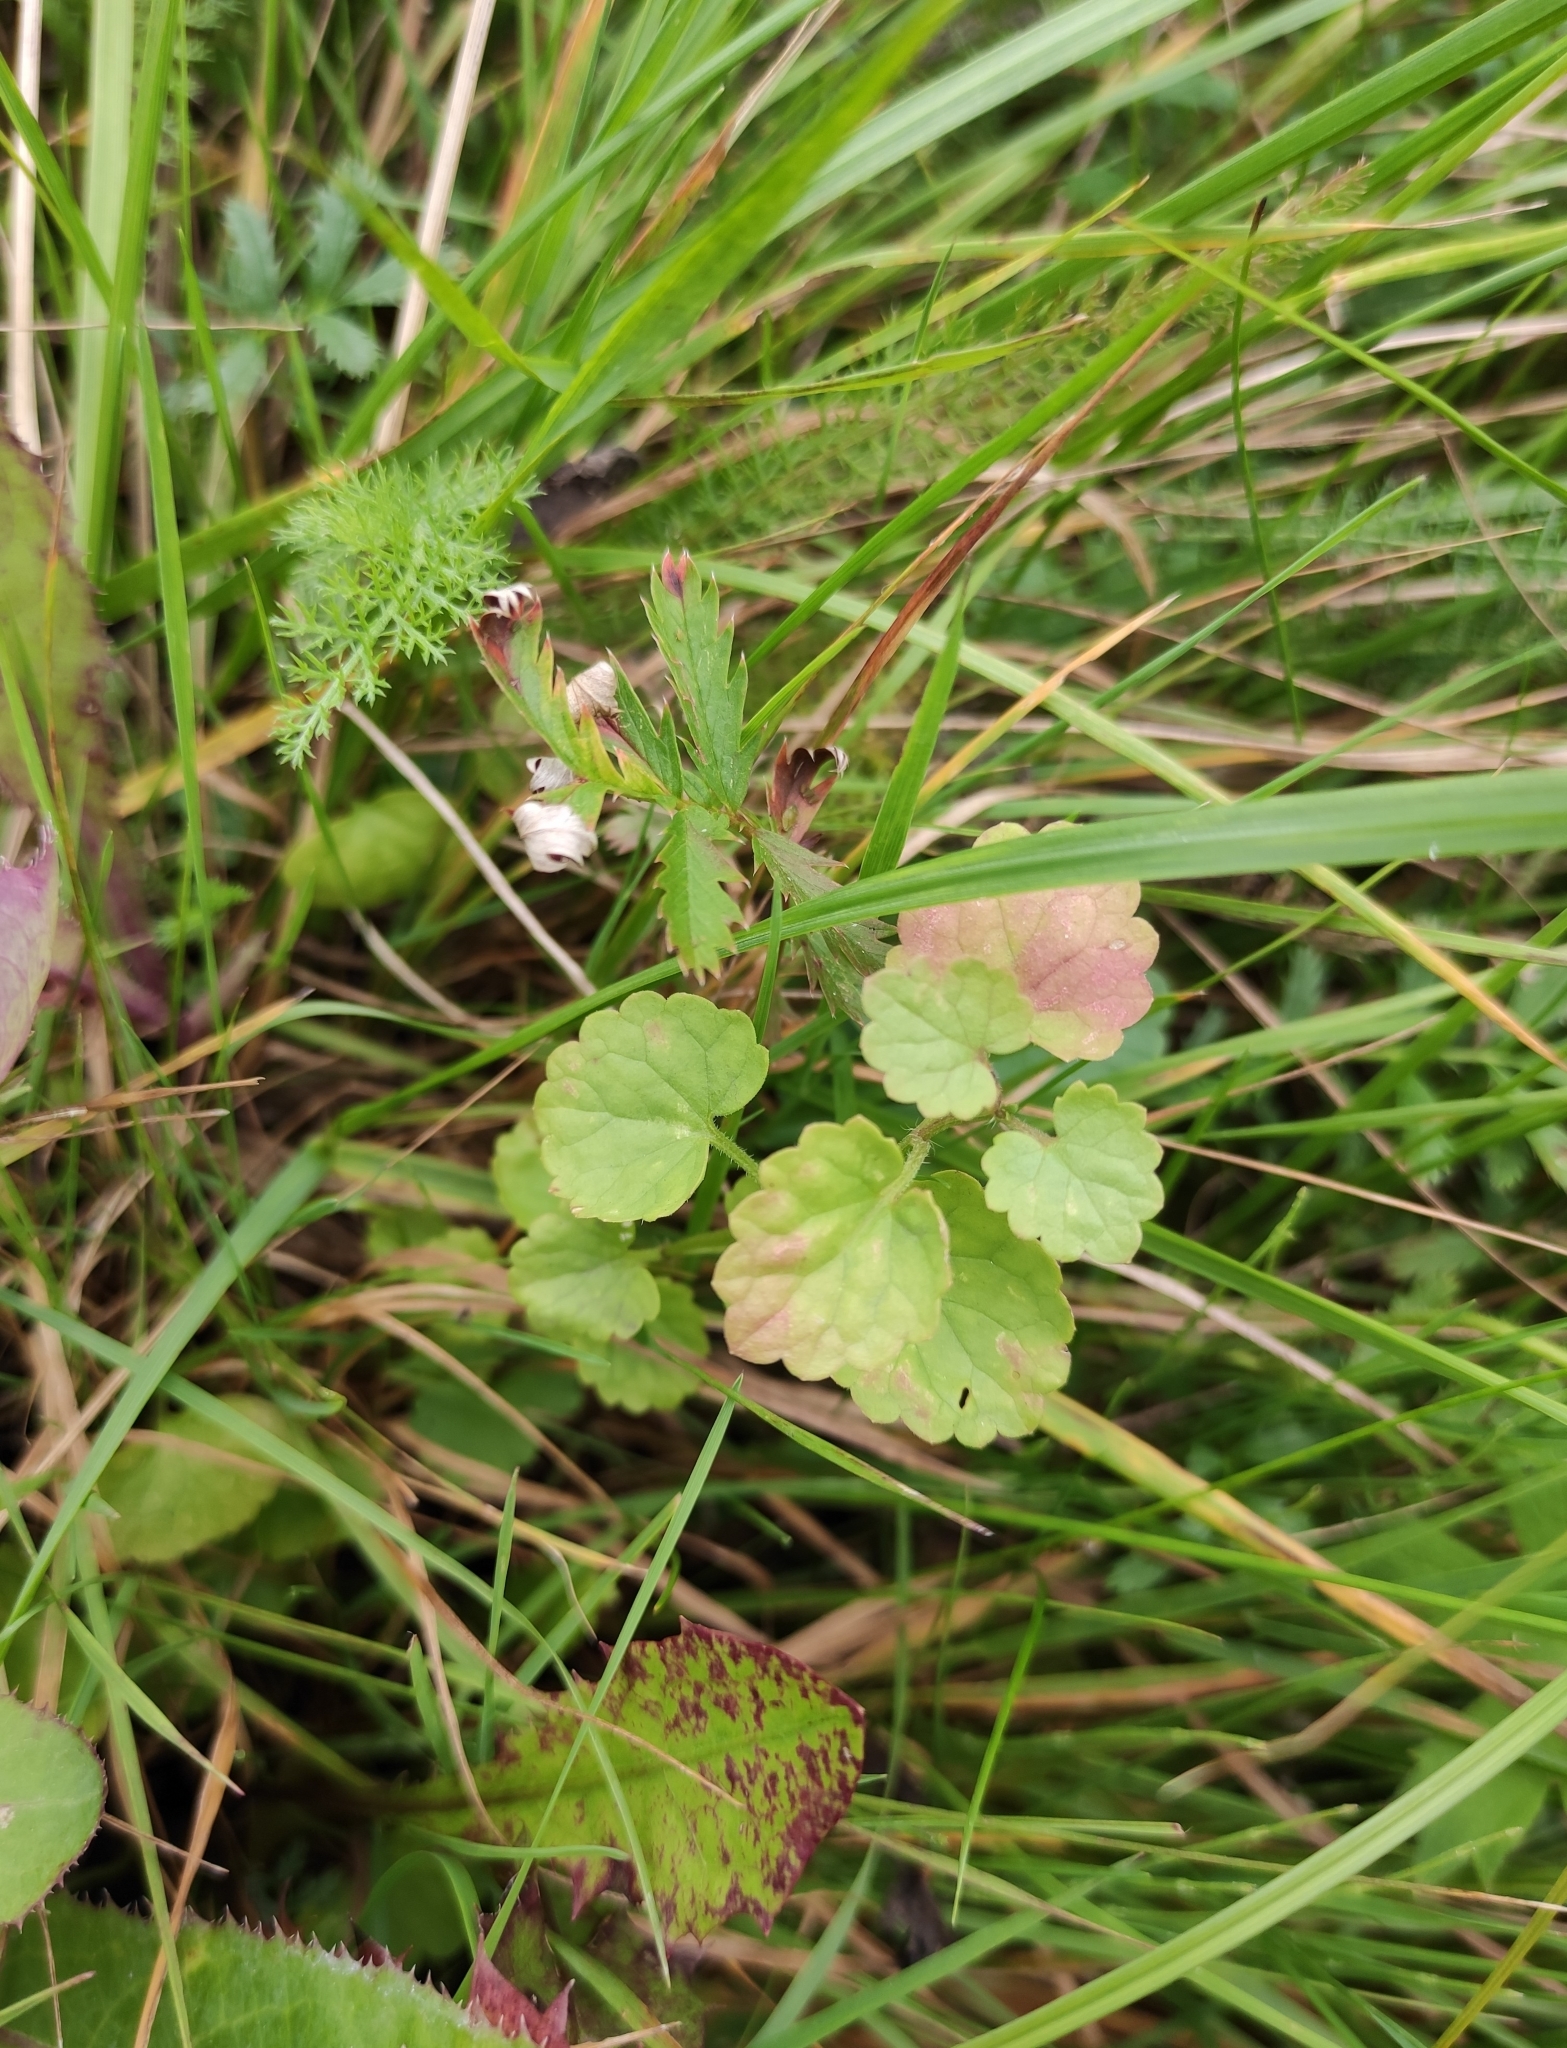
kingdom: Plantae
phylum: Tracheophyta
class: Magnoliopsida
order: Lamiales
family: Lamiaceae
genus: Glechoma
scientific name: Glechoma hederacea
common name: Ground ivy
